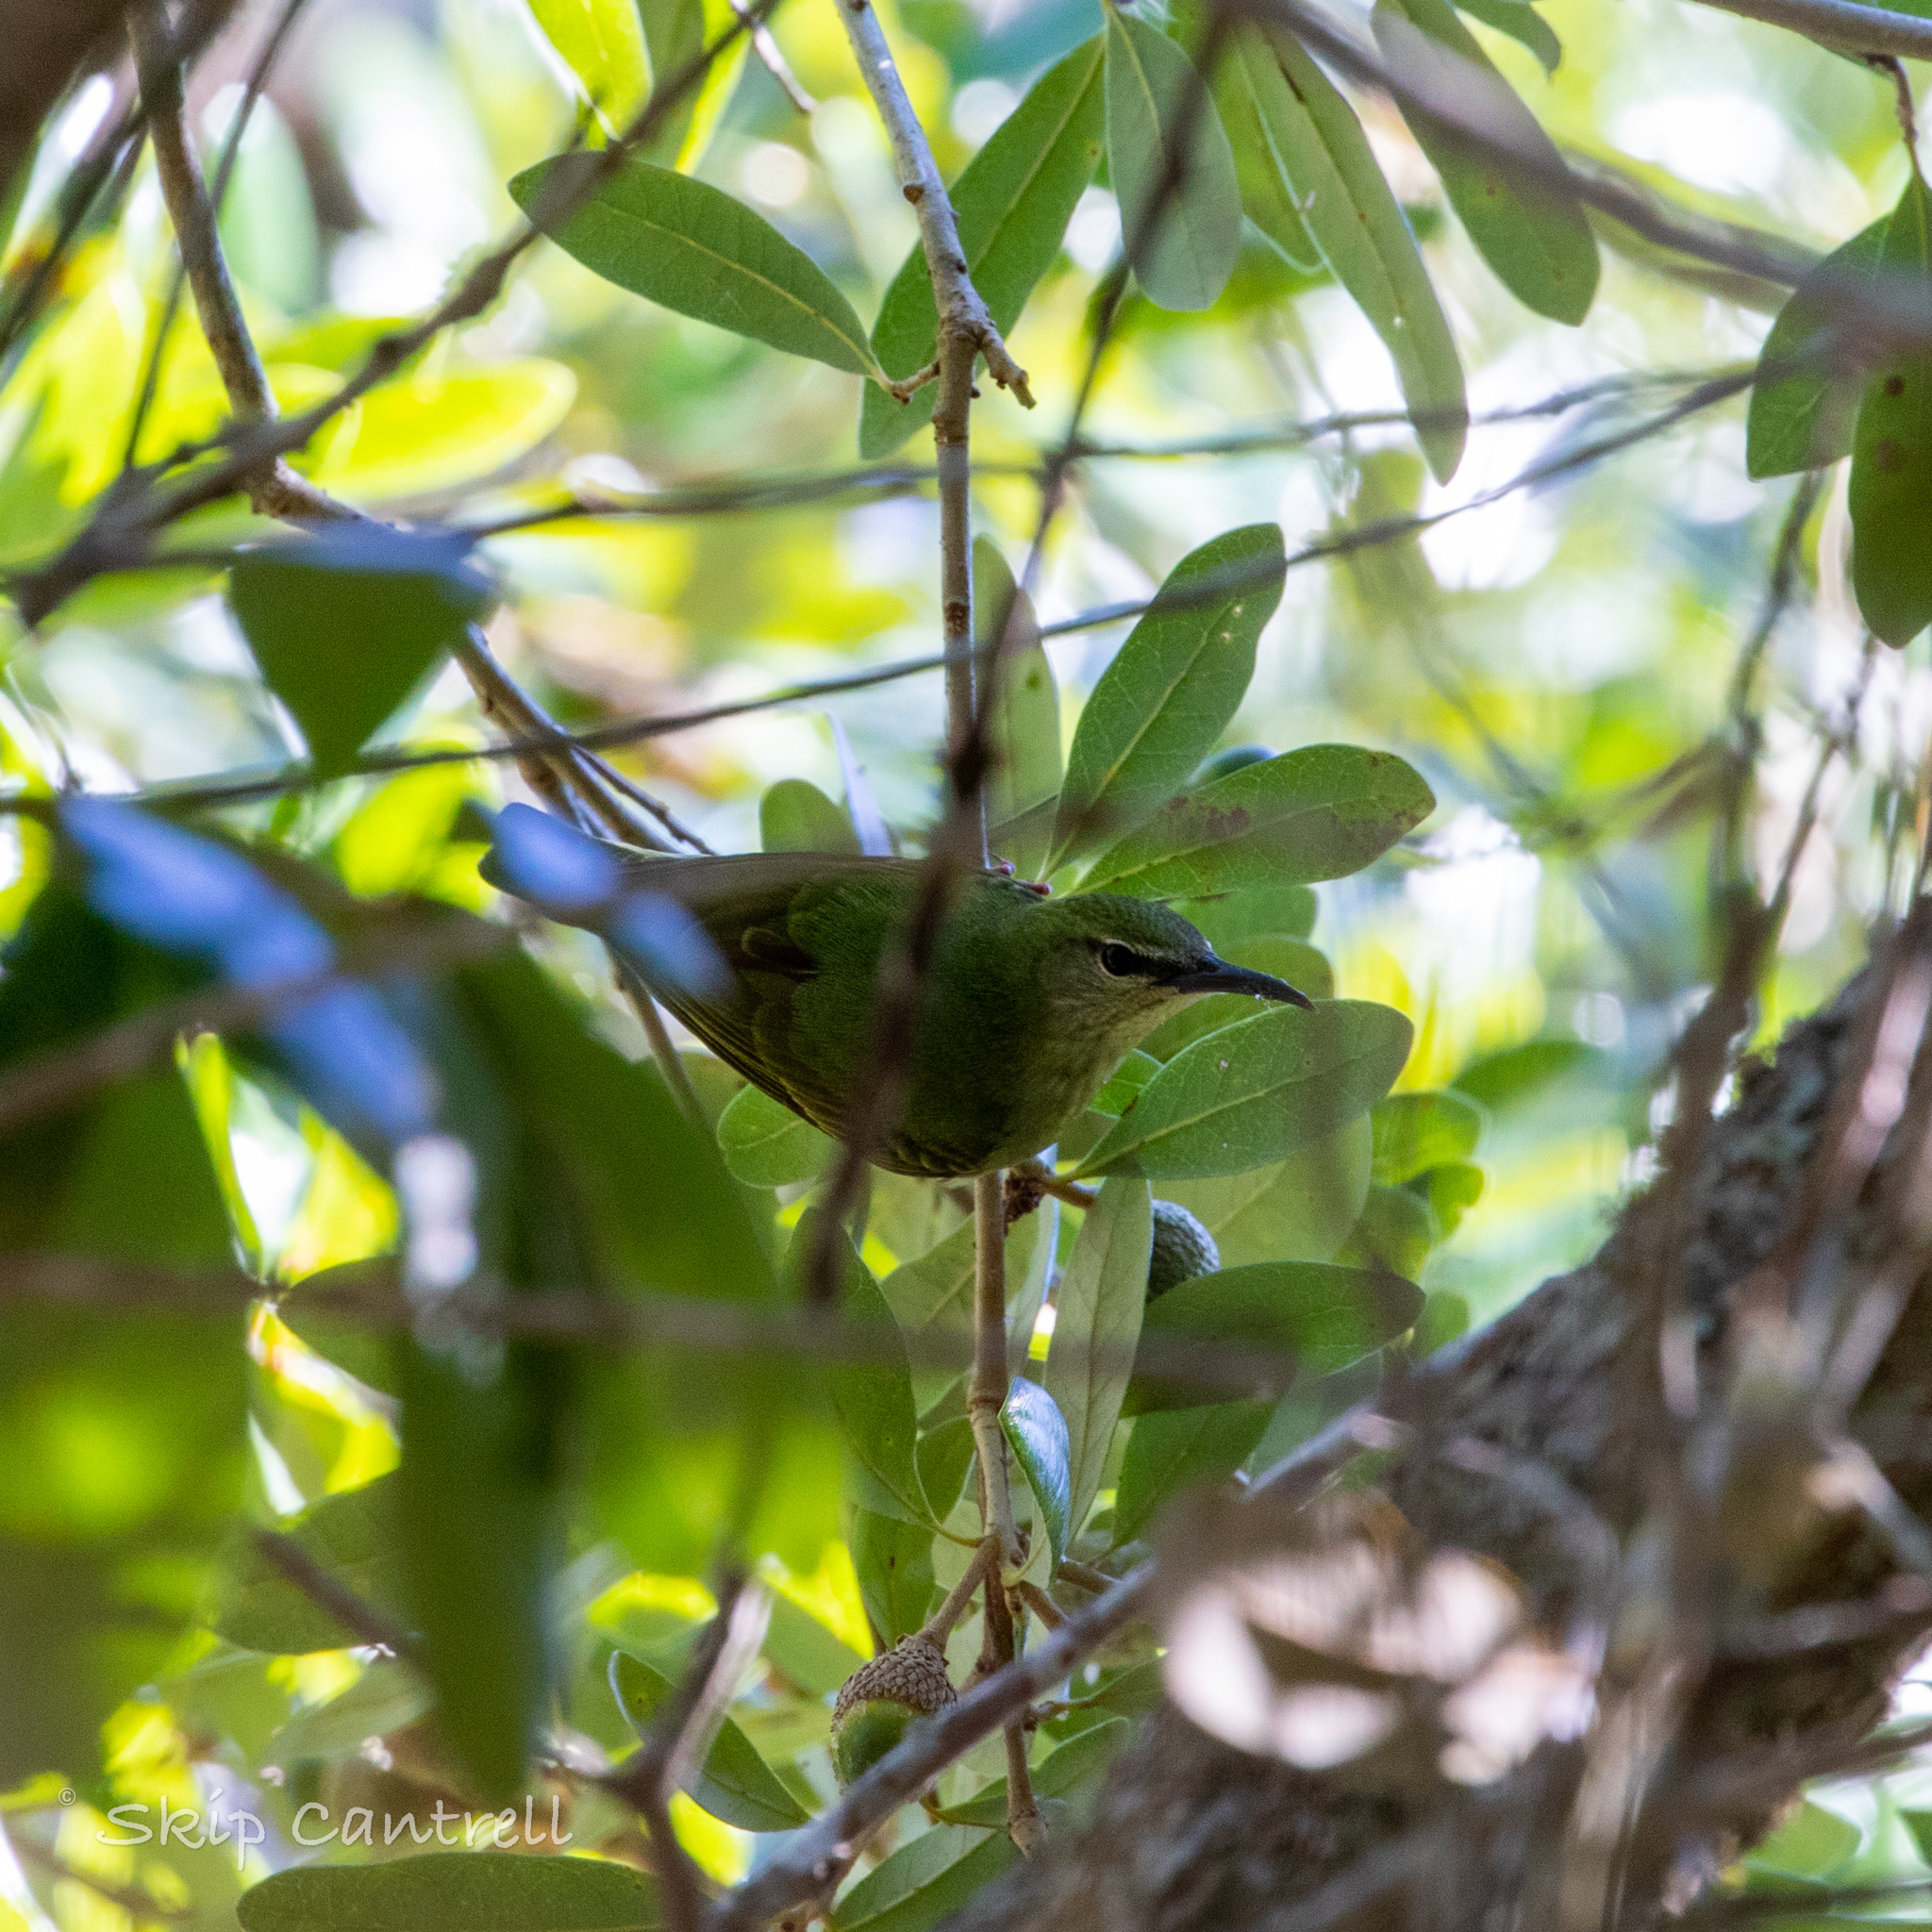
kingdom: Animalia
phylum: Chordata
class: Aves
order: Passeriformes
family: Thraupidae
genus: Cyanerpes
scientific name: Cyanerpes cyaneus
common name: Red-legged honeycreeper
